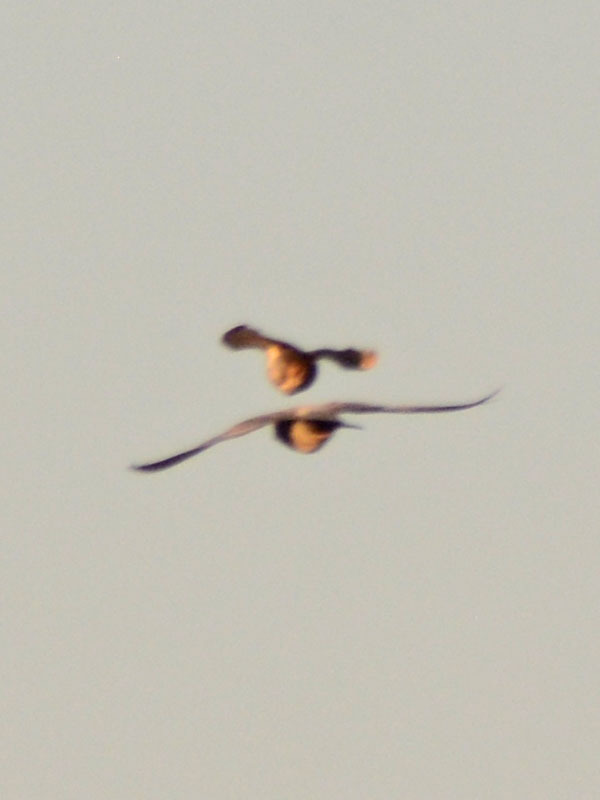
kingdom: Animalia
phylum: Chordata
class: Aves
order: Columbiformes
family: Columbidae
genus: Columba
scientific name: Columba livia
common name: Rock pigeon
